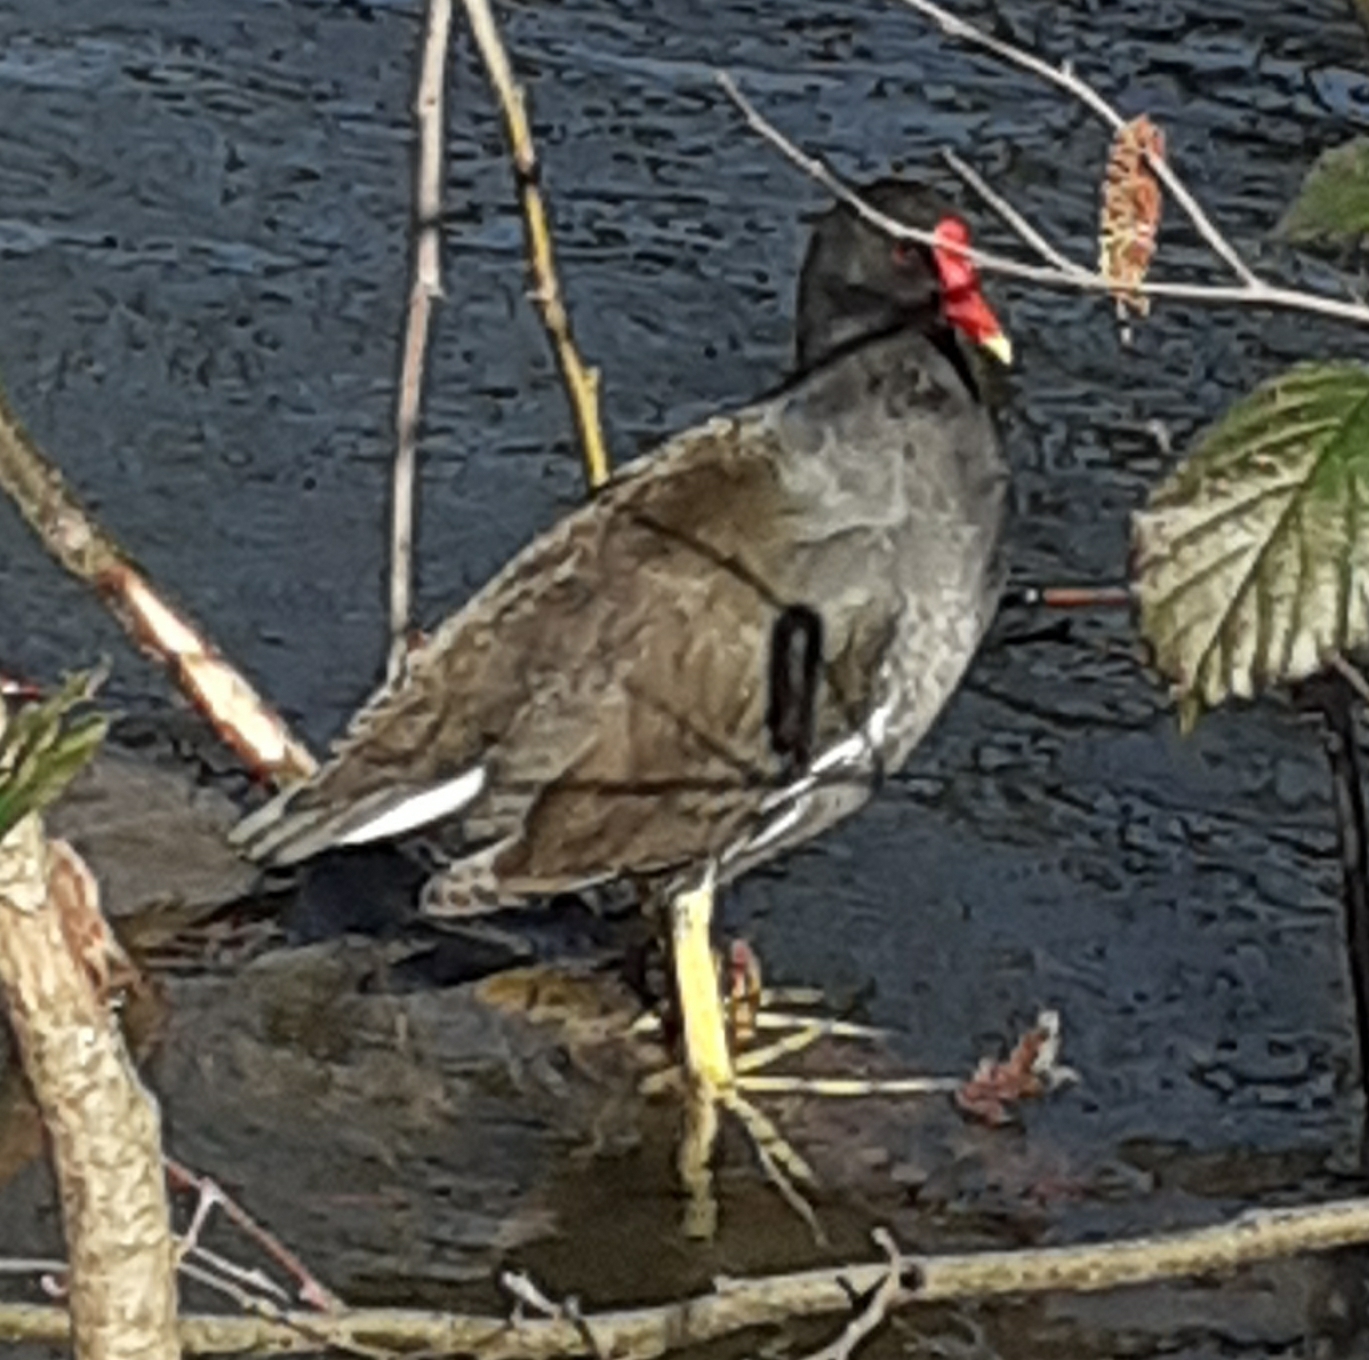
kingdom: Animalia
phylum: Chordata
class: Aves
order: Gruiformes
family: Rallidae
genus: Gallinula
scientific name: Gallinula chloropus
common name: Common moorhen
